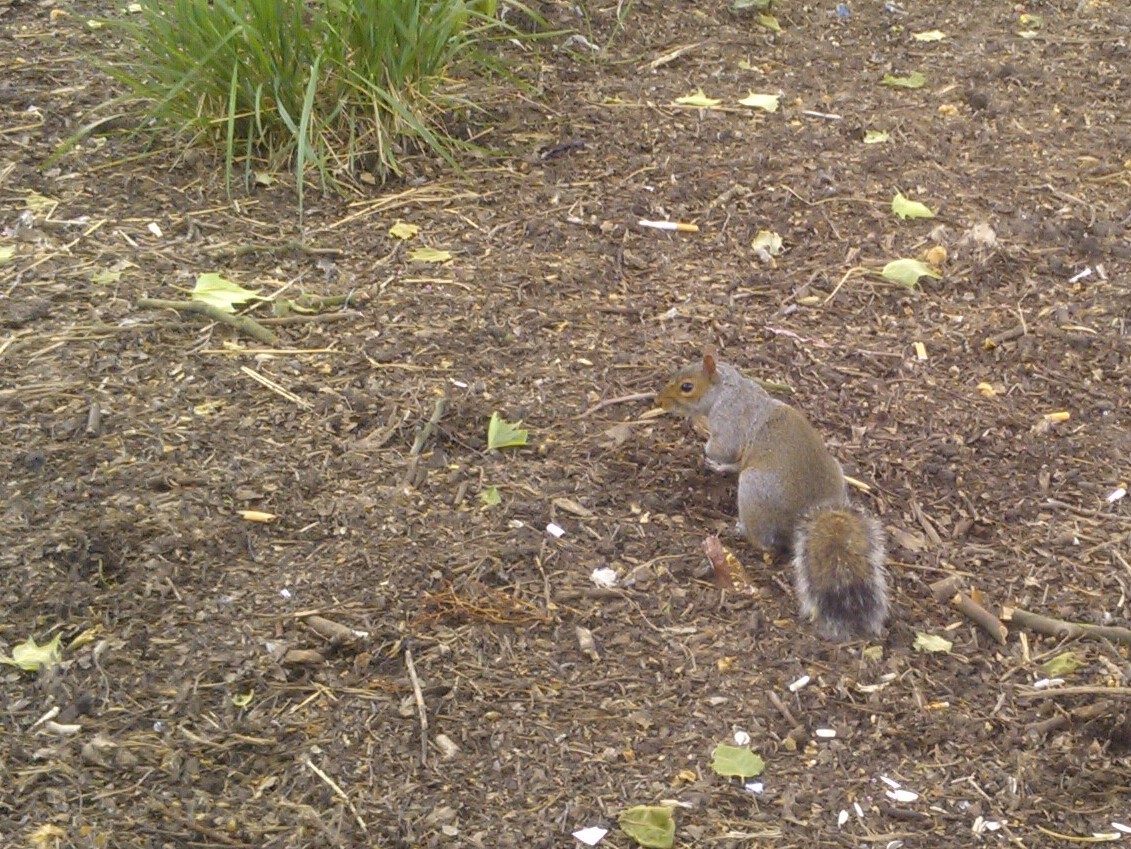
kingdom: Animalia
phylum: Chordata
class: Mammalia
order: Rodentia
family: Sciuridae
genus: Sciurus
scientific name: Sciurus carolinensis
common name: Eastern gray squirrel
